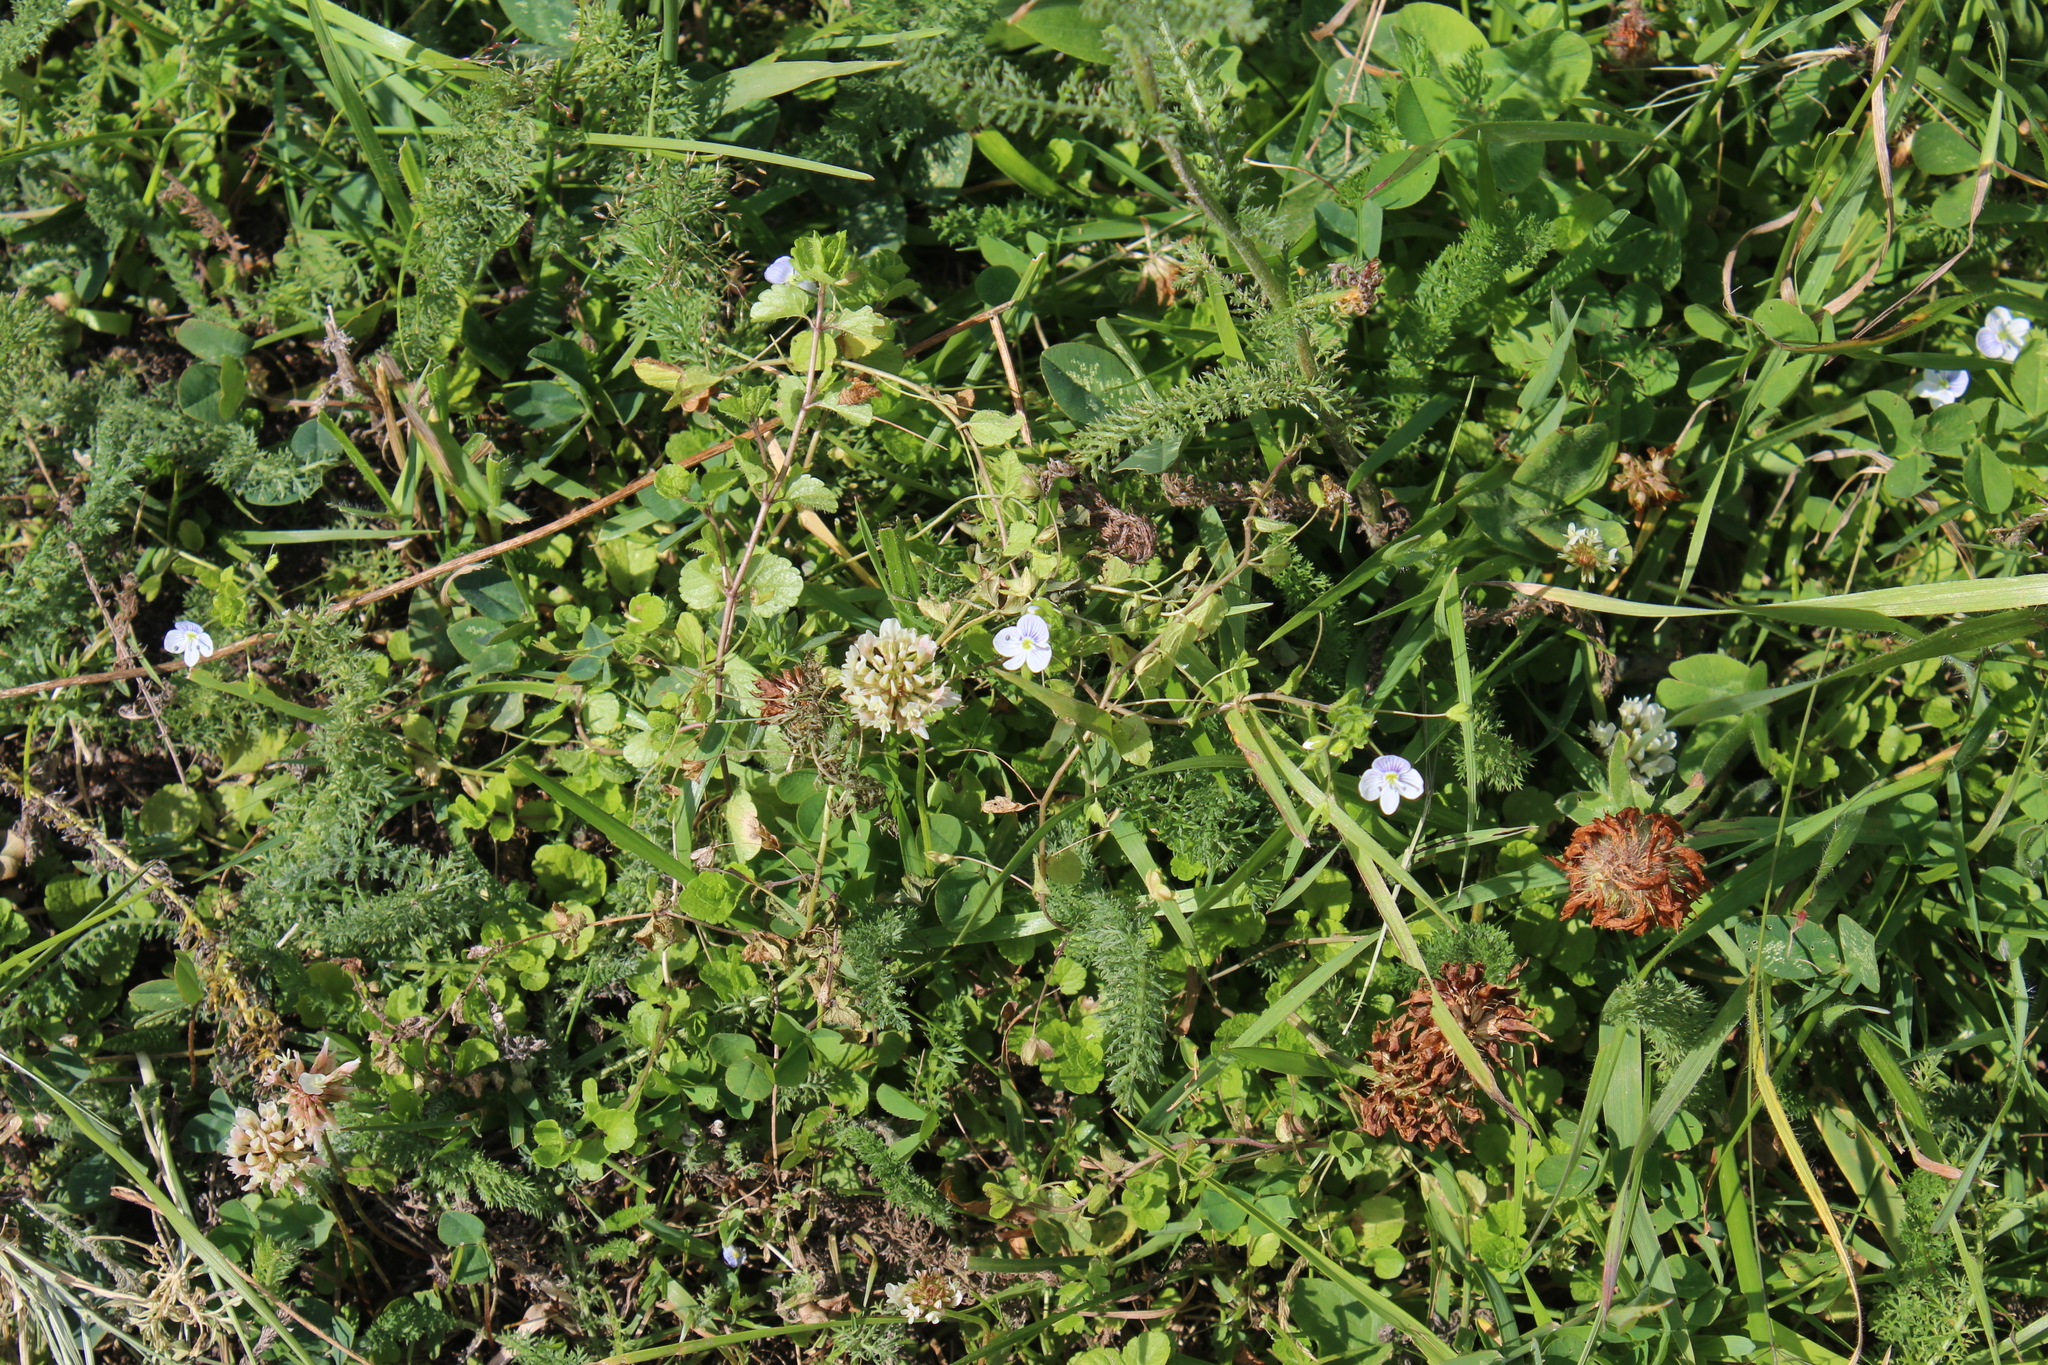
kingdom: Plantae
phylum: Tracheophyta
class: Magnoliopsida
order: Lamiales
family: Plantaginaceae
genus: Veronica
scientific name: Veronica filiformis
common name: Slender speedwell
